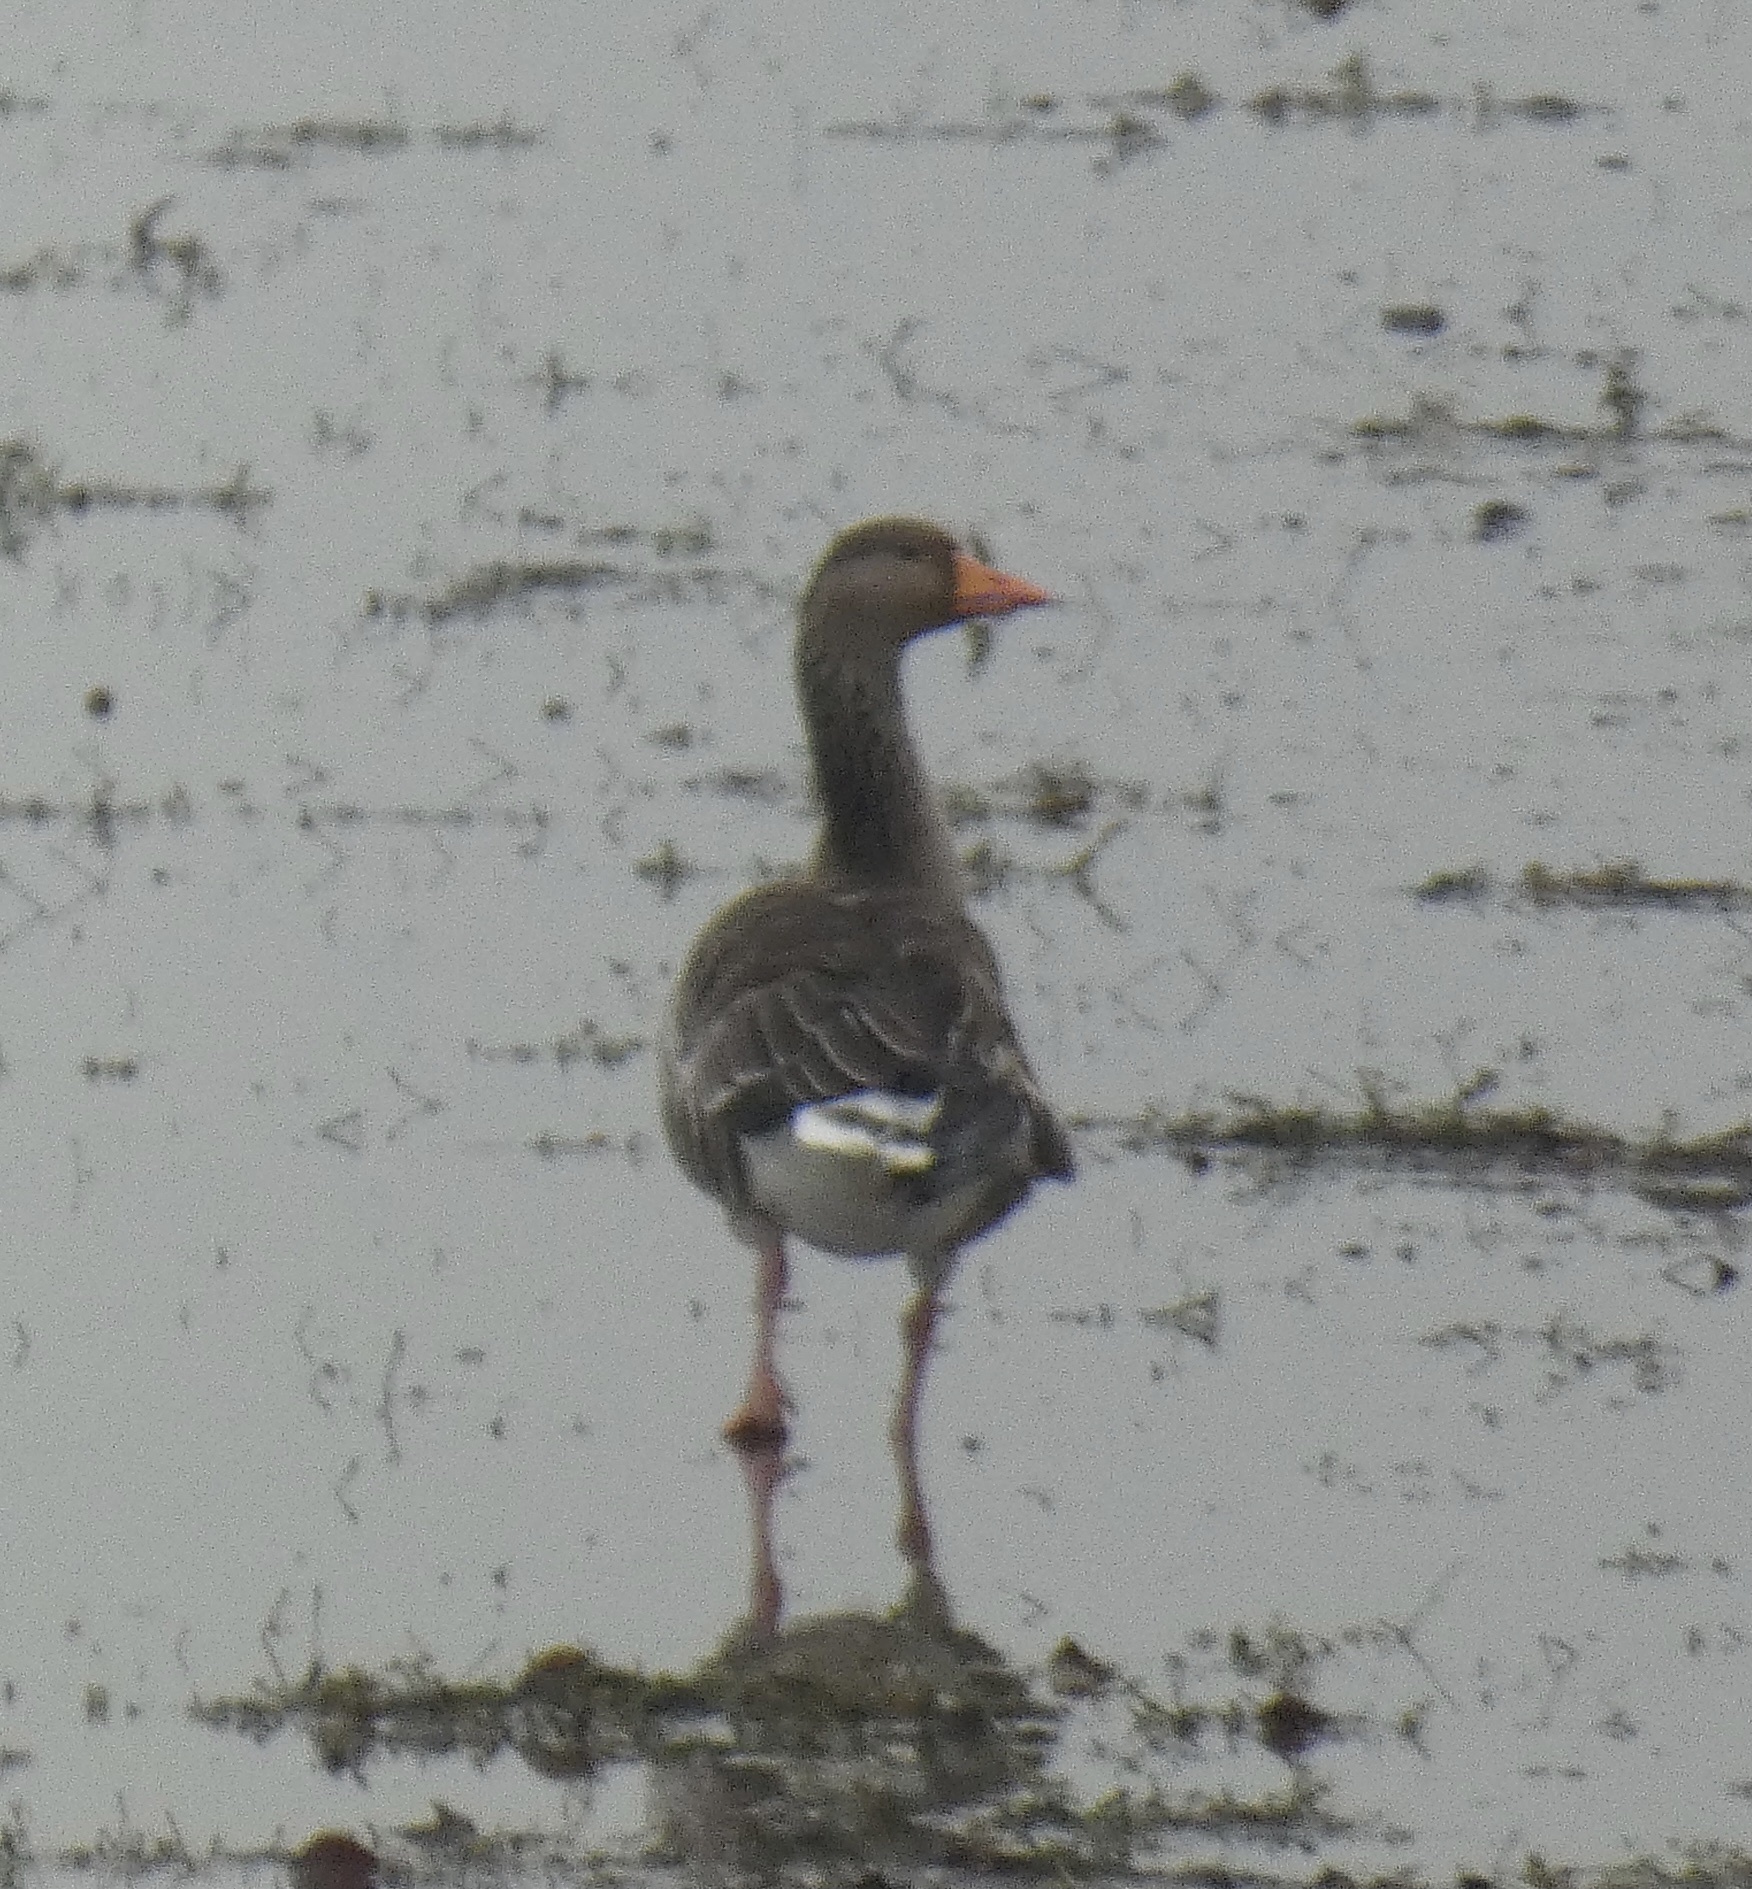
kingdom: Animalia
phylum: Chordata
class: Aves
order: Anseriformes
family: Anatidae
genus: Anser
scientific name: Anser anser
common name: Greylag goose
